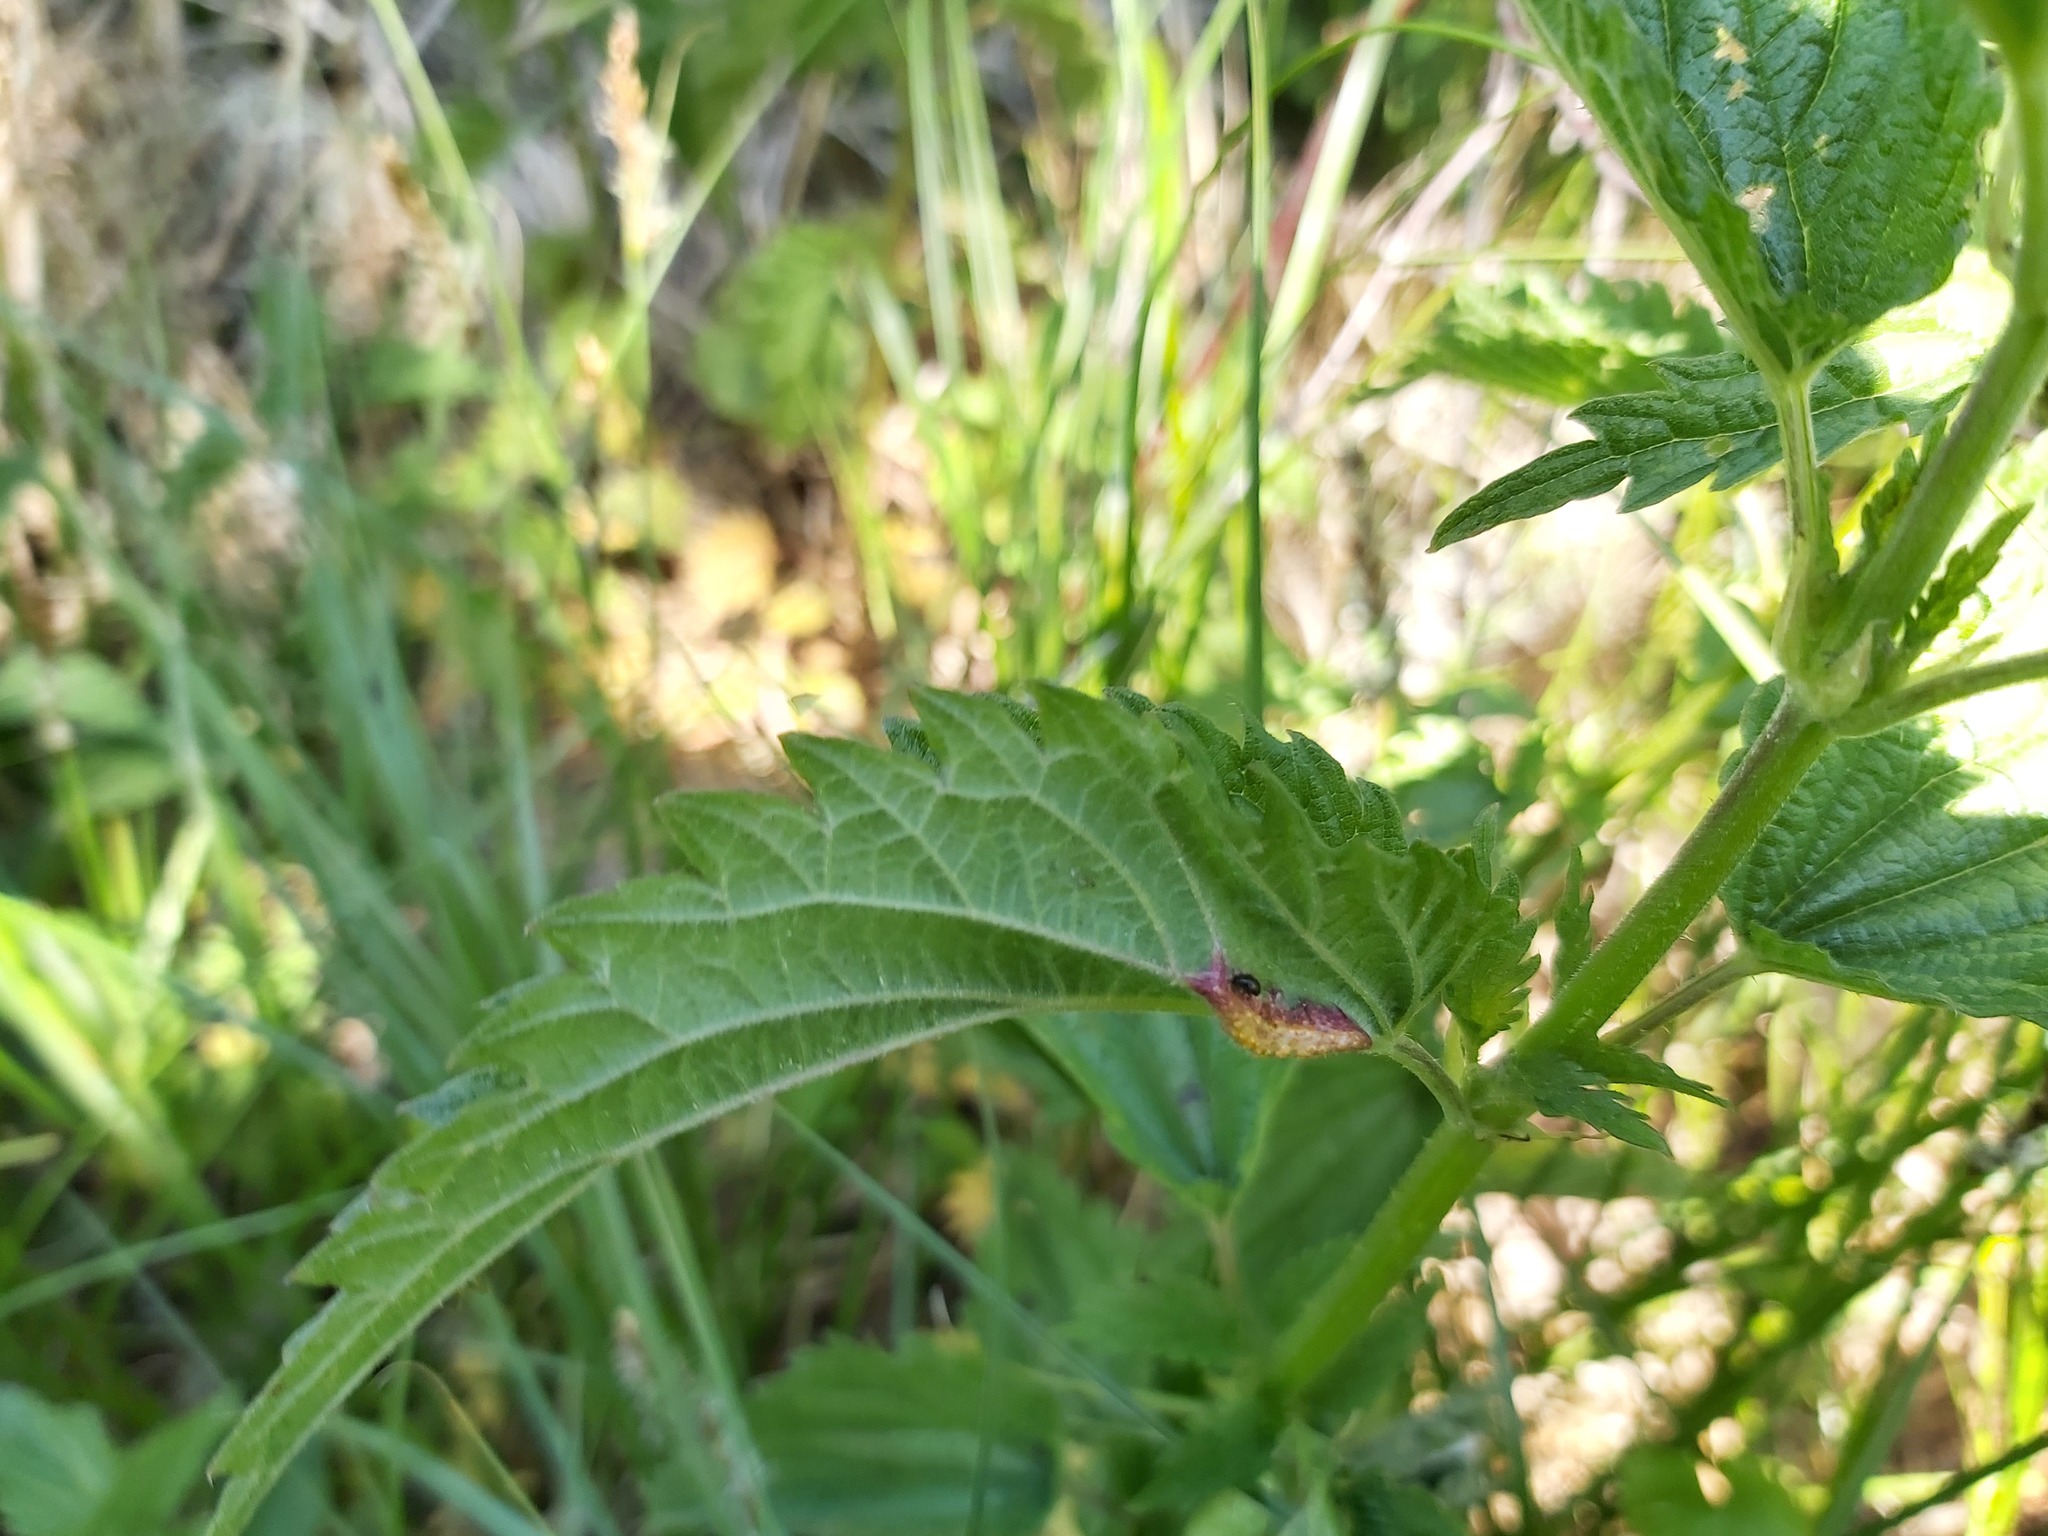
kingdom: Fungi
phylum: Basidiomycota
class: Pucciniomycetes
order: Pucciniales
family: Pucciniaceae
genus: Puccinia
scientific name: Puccinia urticata
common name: Nettle clustercup rust fungus
